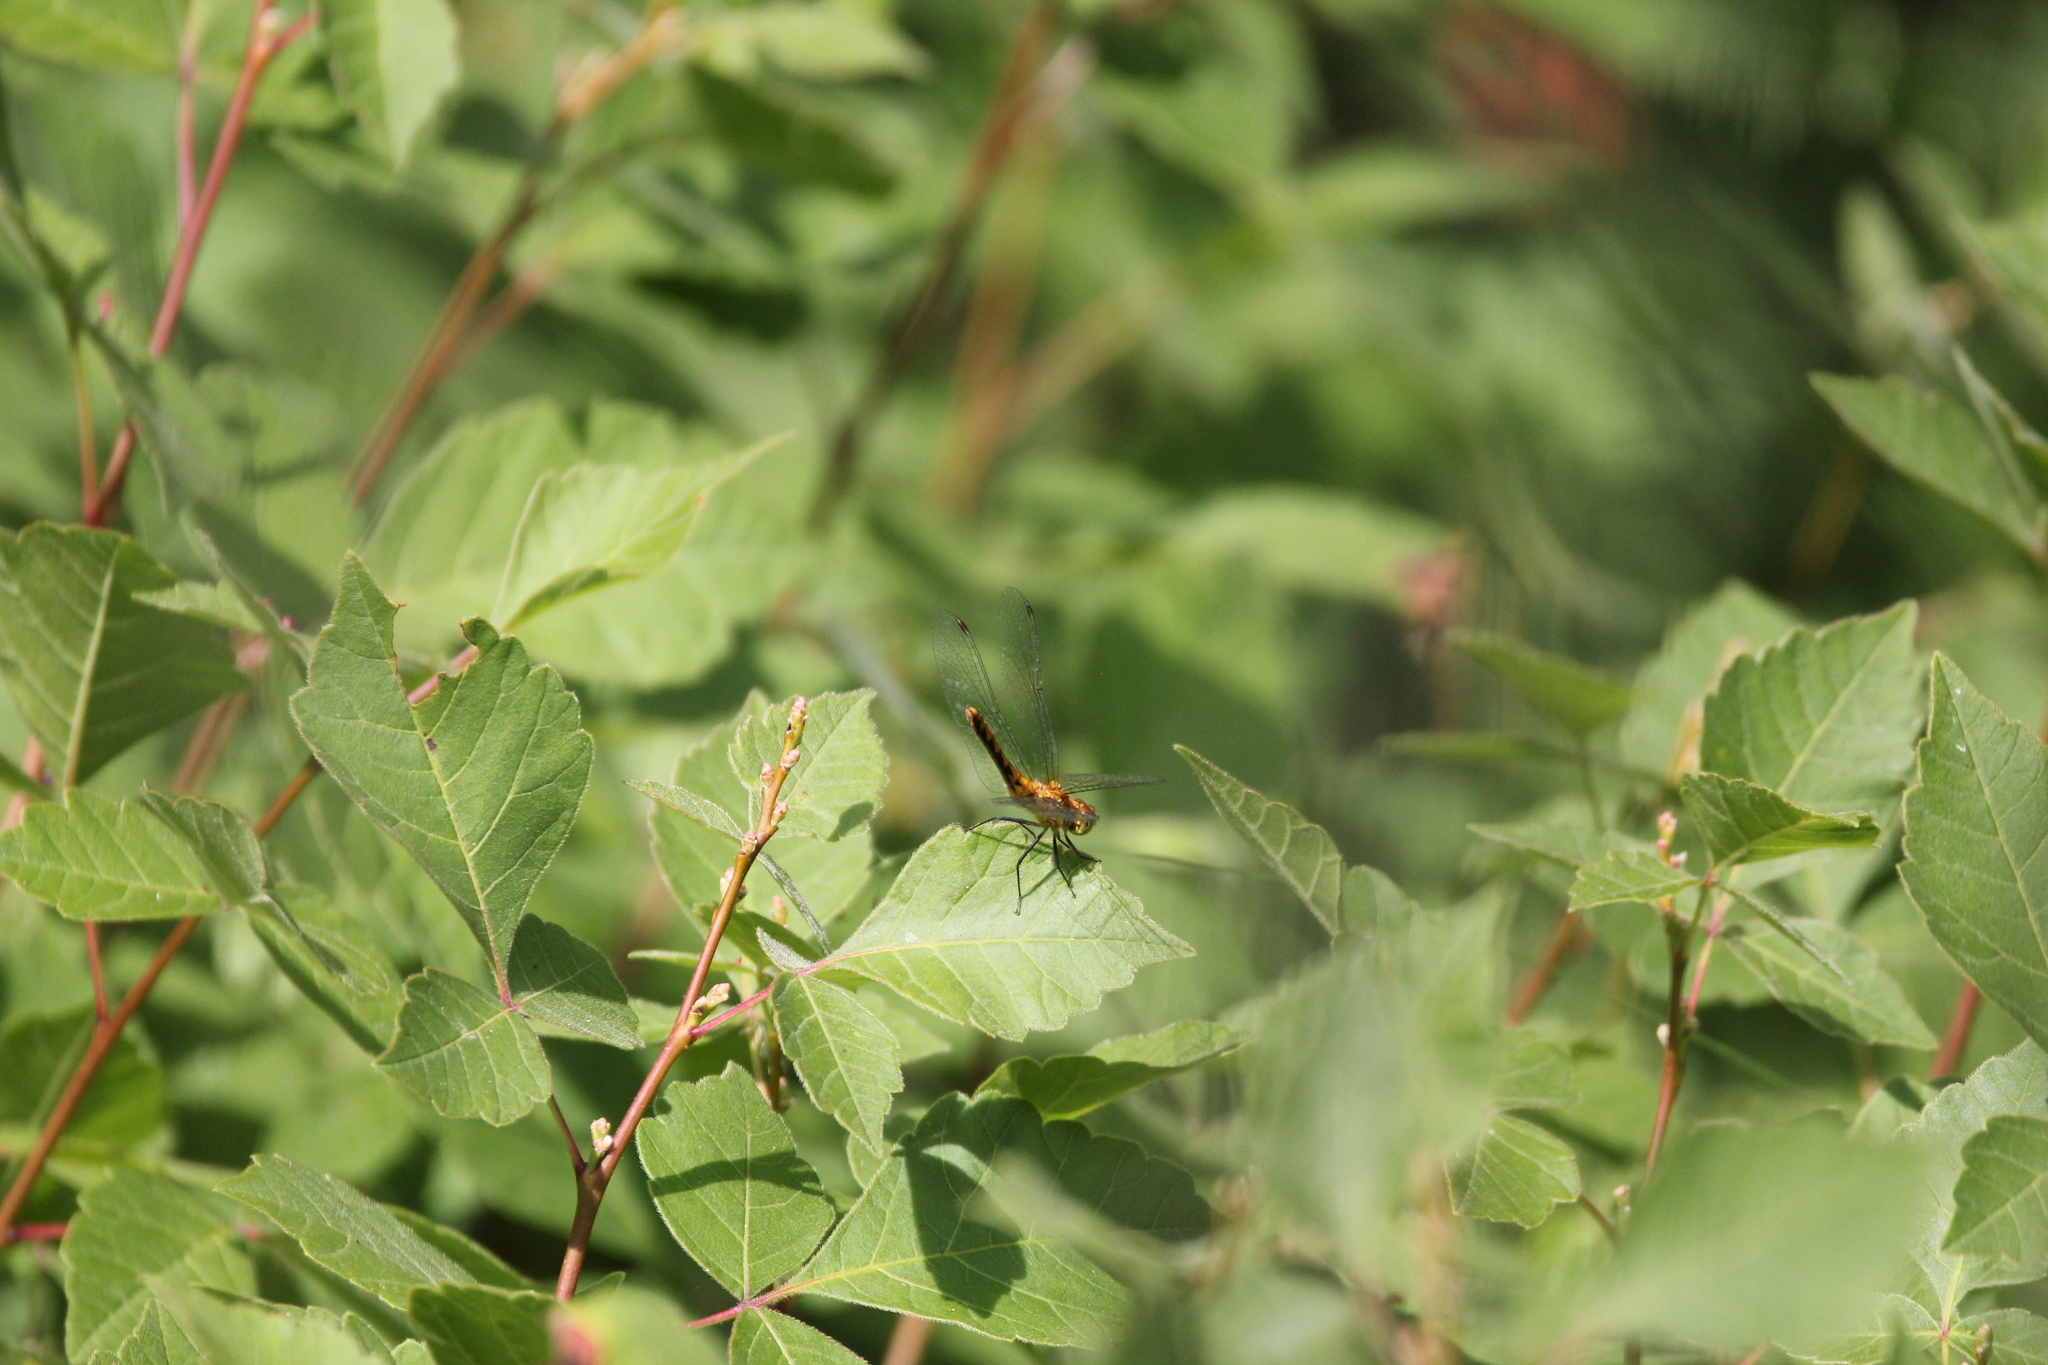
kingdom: Plantae
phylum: Tracheophyta
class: Magnoliopsida
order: Sapindales
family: Anacardiaceae
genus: Rhus
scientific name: Rhus aromatica
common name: Aromatic sumac
